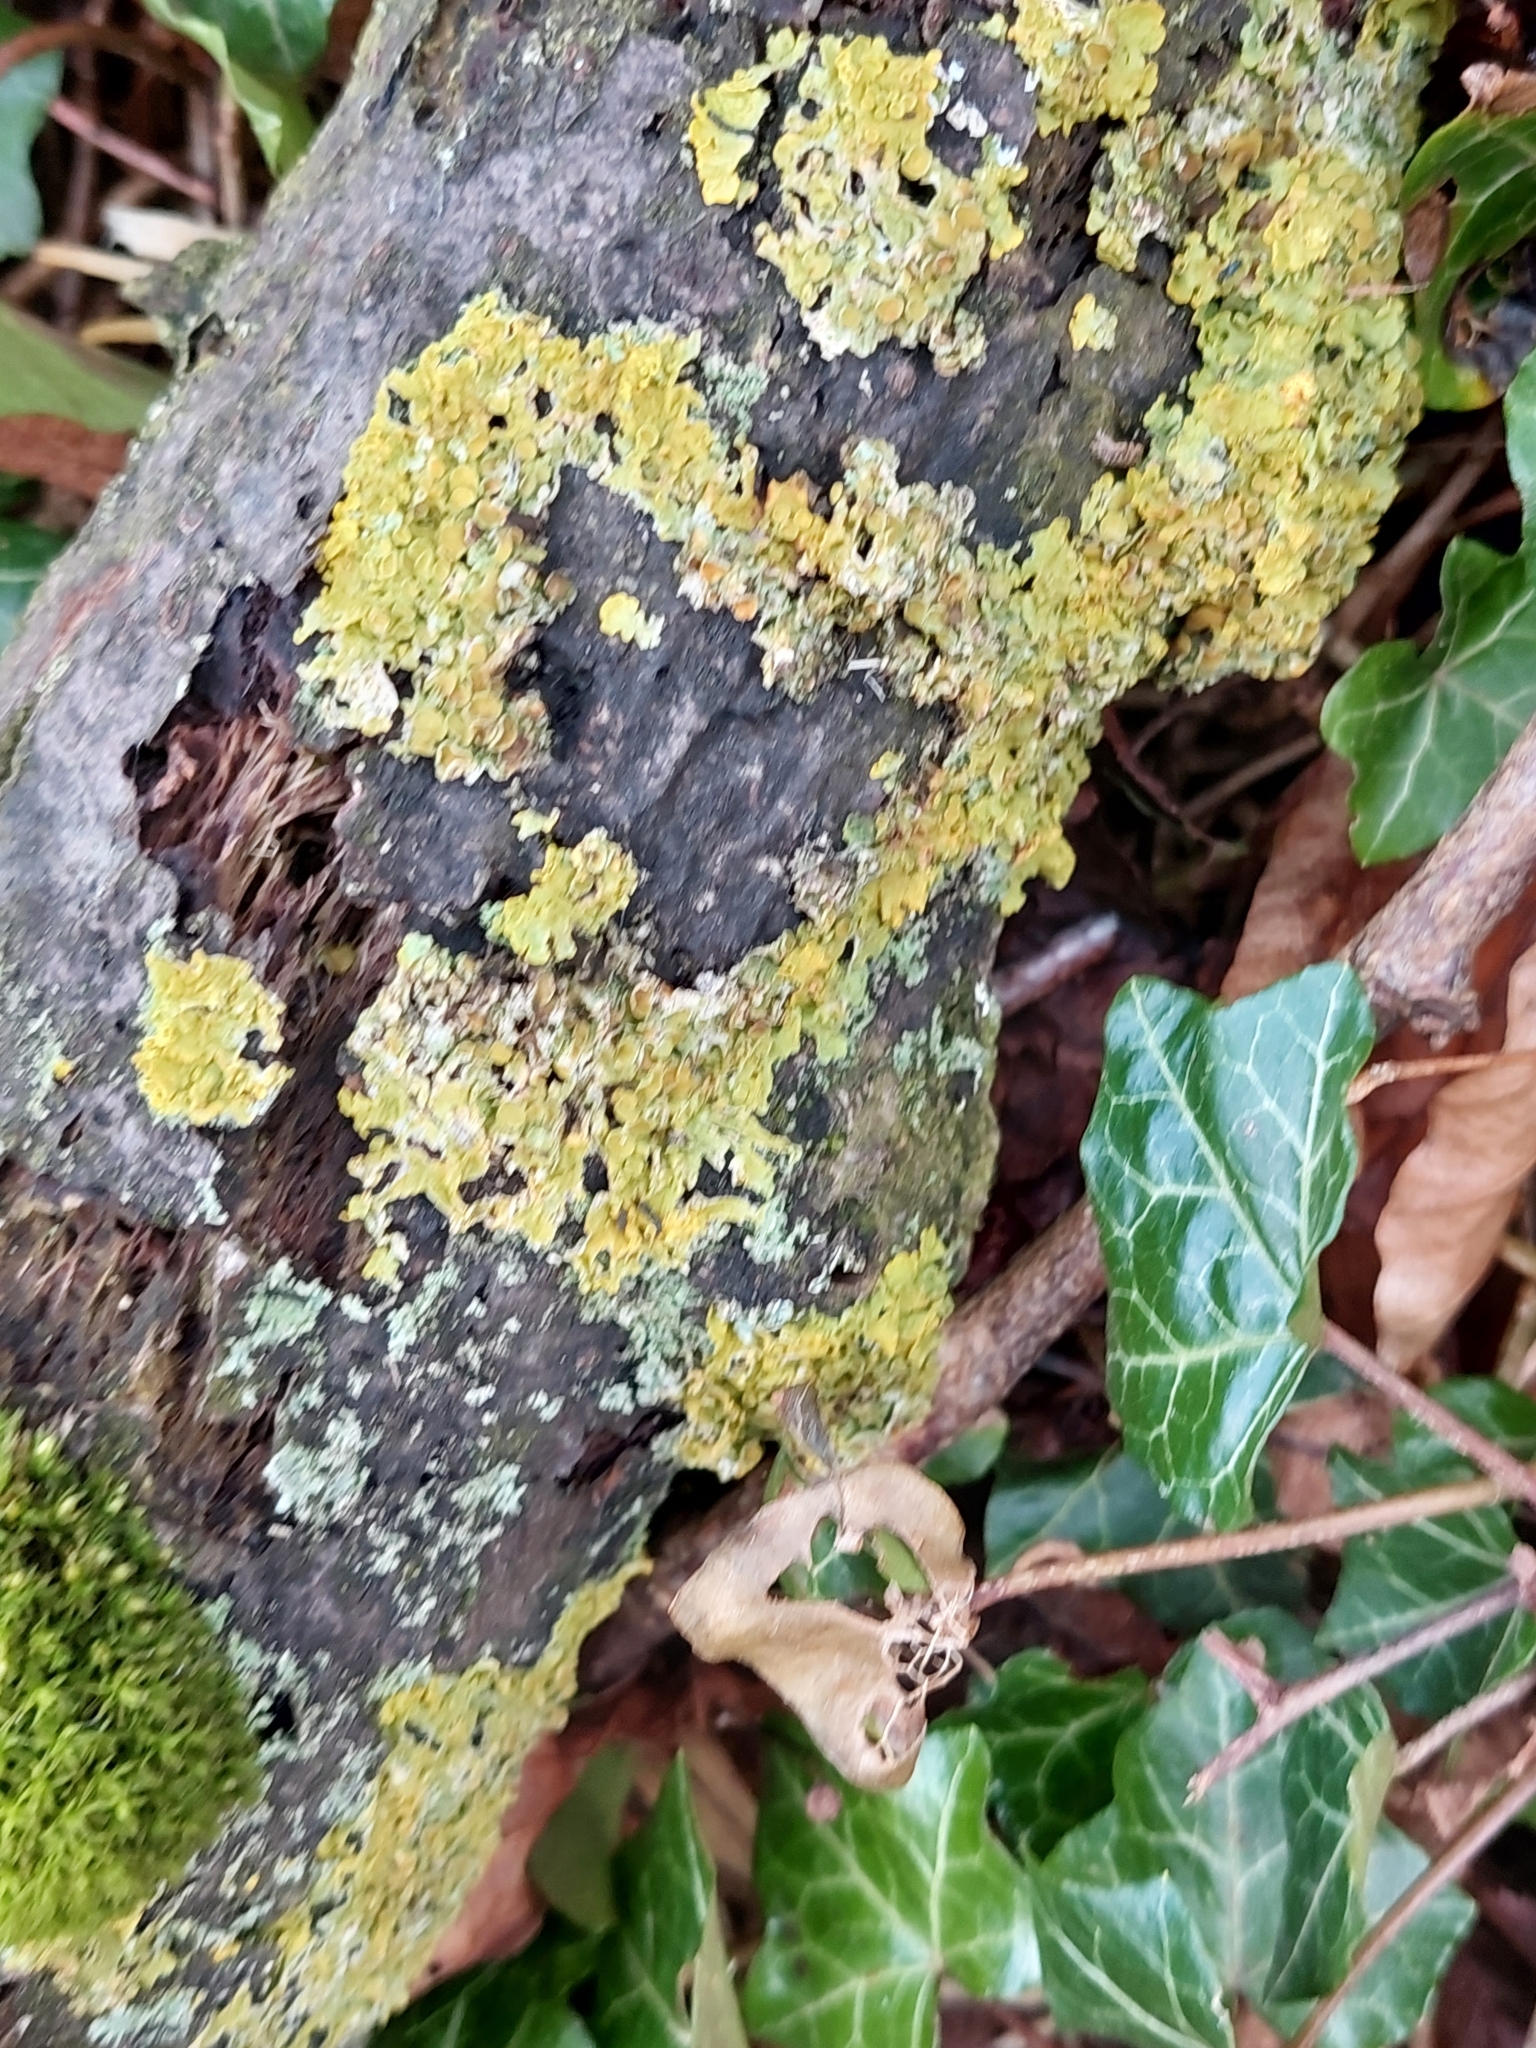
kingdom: Fungi
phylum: Ascomycota
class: Lecanoromycetes
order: Teloschistales
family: Teloschistaceae
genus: Xanthoria
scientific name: Xanthoria parietina
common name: Common orange lichen
